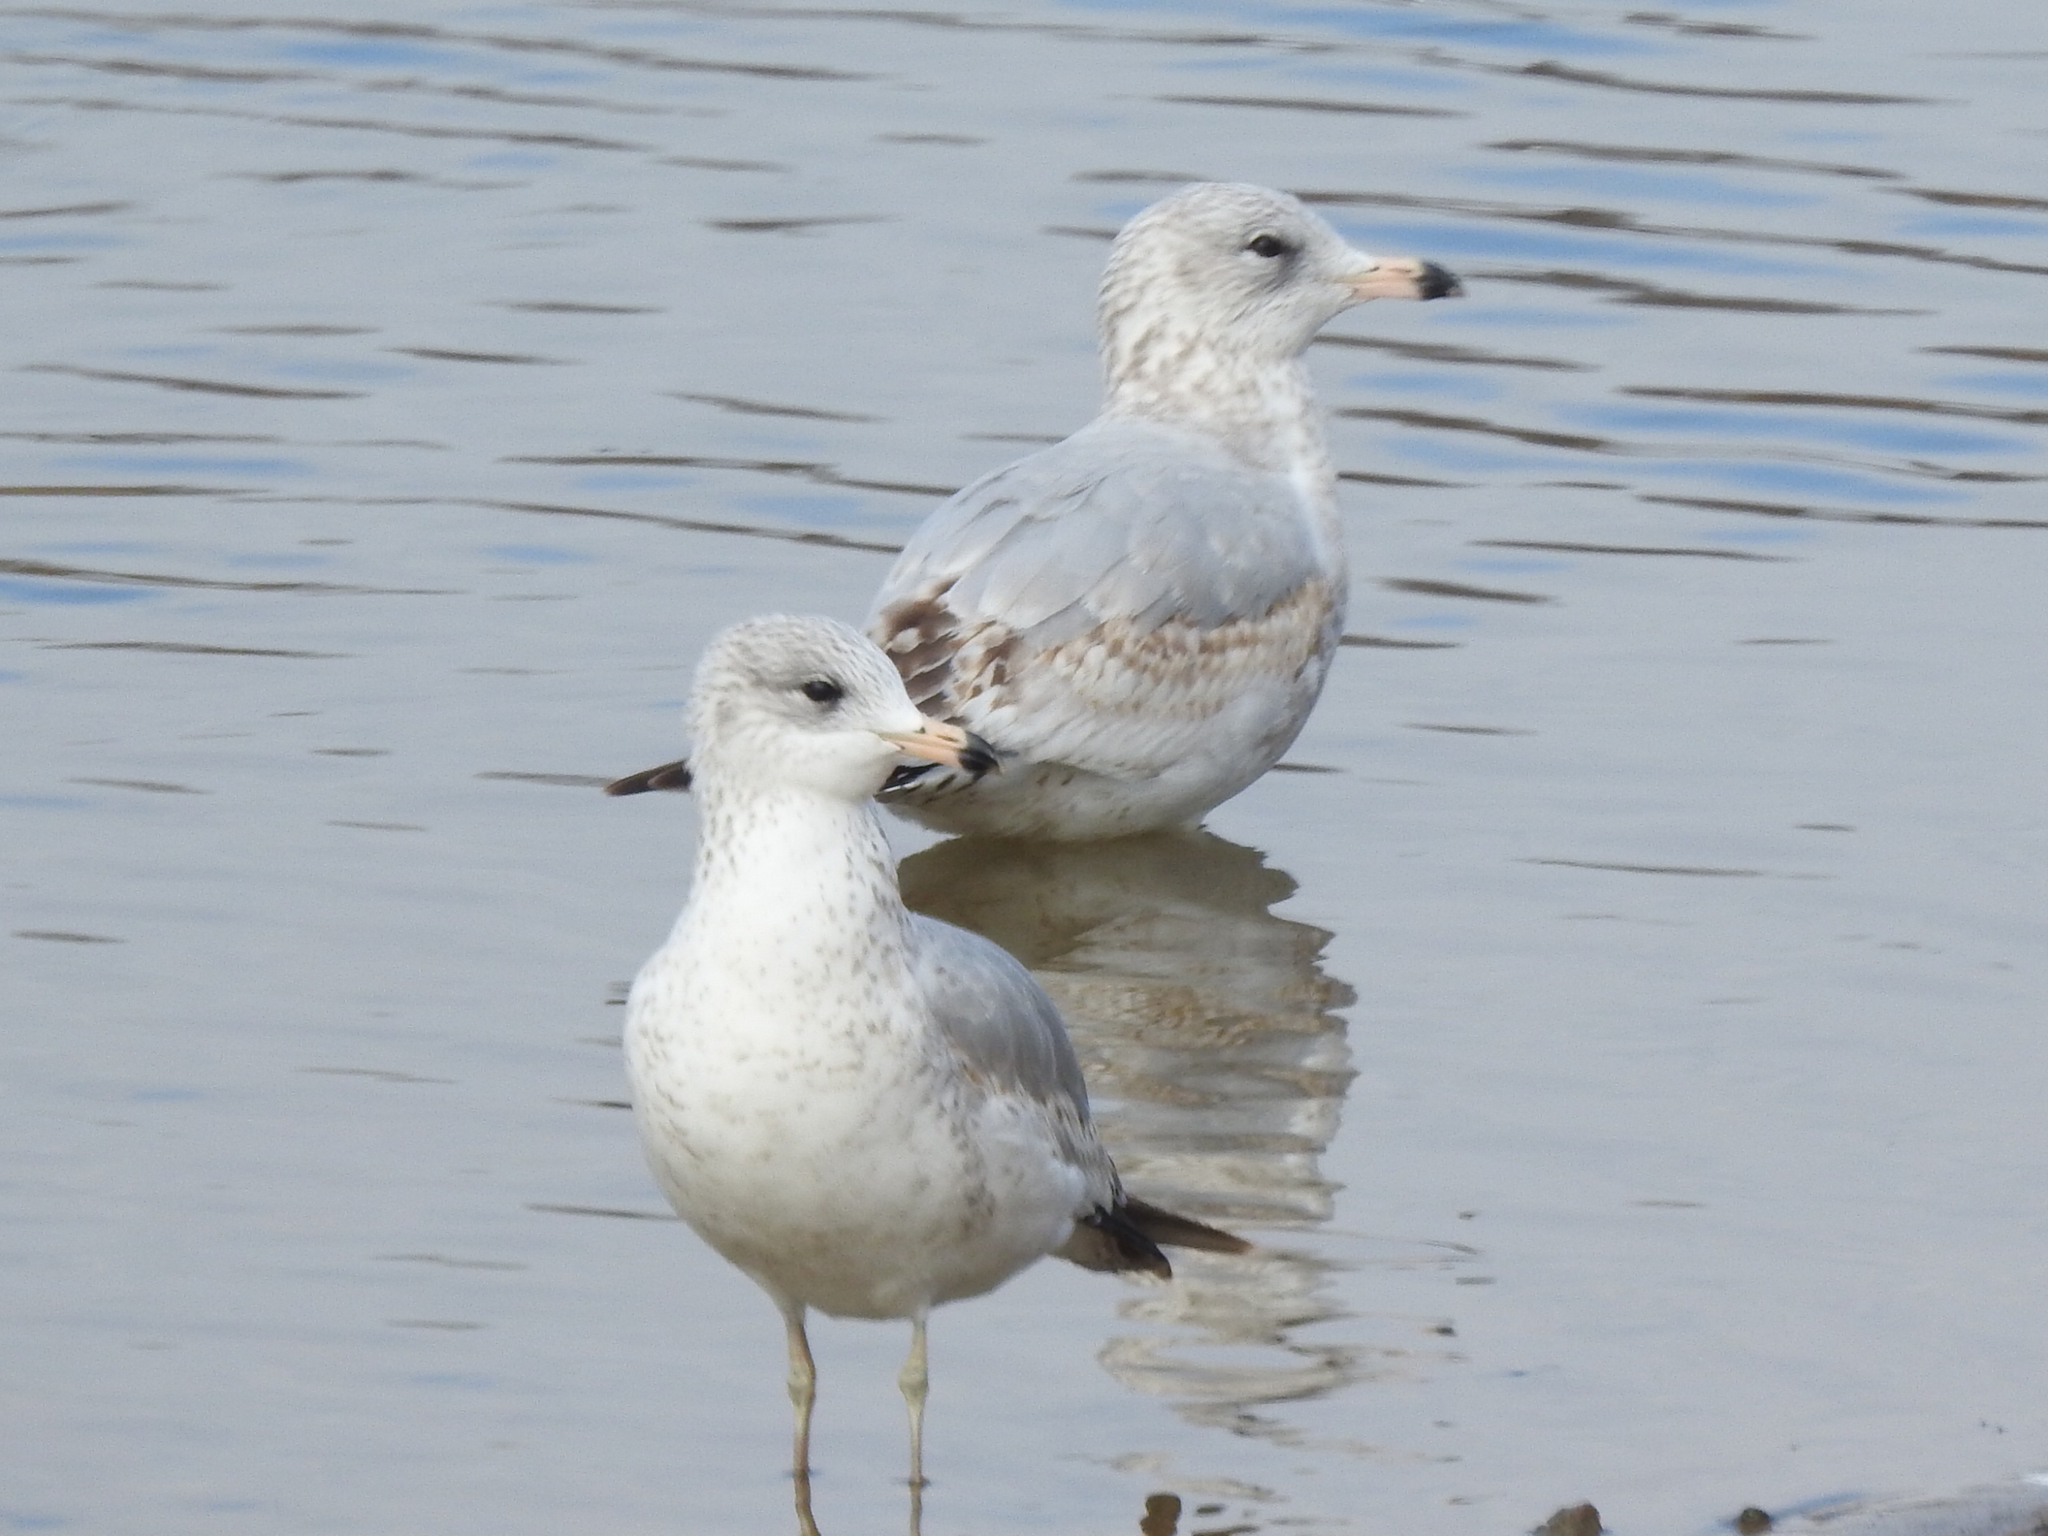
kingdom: Animalia
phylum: Chordata
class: Aves
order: Charadriiformes
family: Laridae
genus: Larus
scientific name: Larus delawarensis
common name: Ring-billed gull
